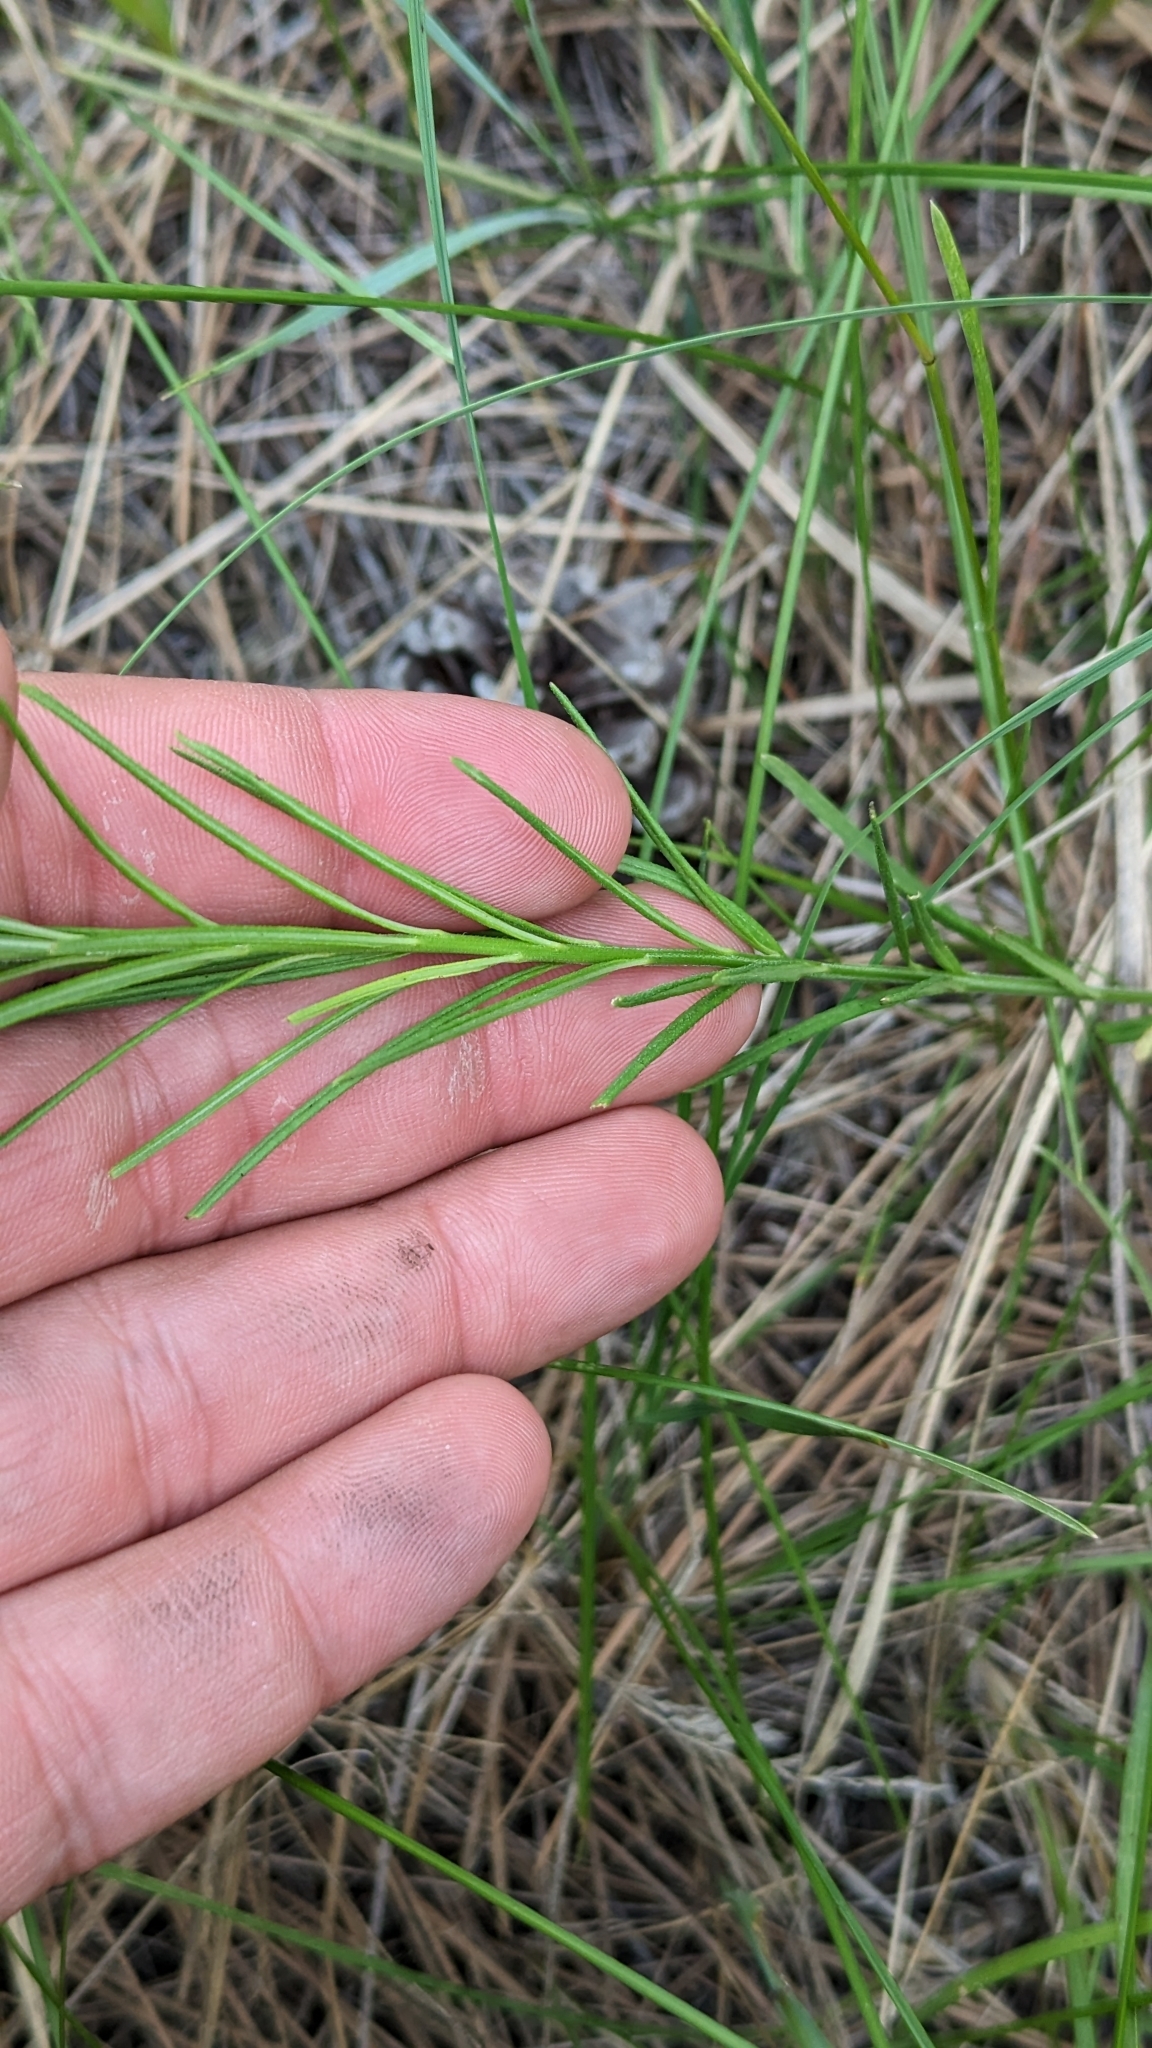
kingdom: Plantae
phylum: Tracheophyta
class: Magnoliopsida
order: Gentianales
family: Apocynaceae
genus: Asclepias
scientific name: Asclepias pumila
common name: Dwarf milkweed
